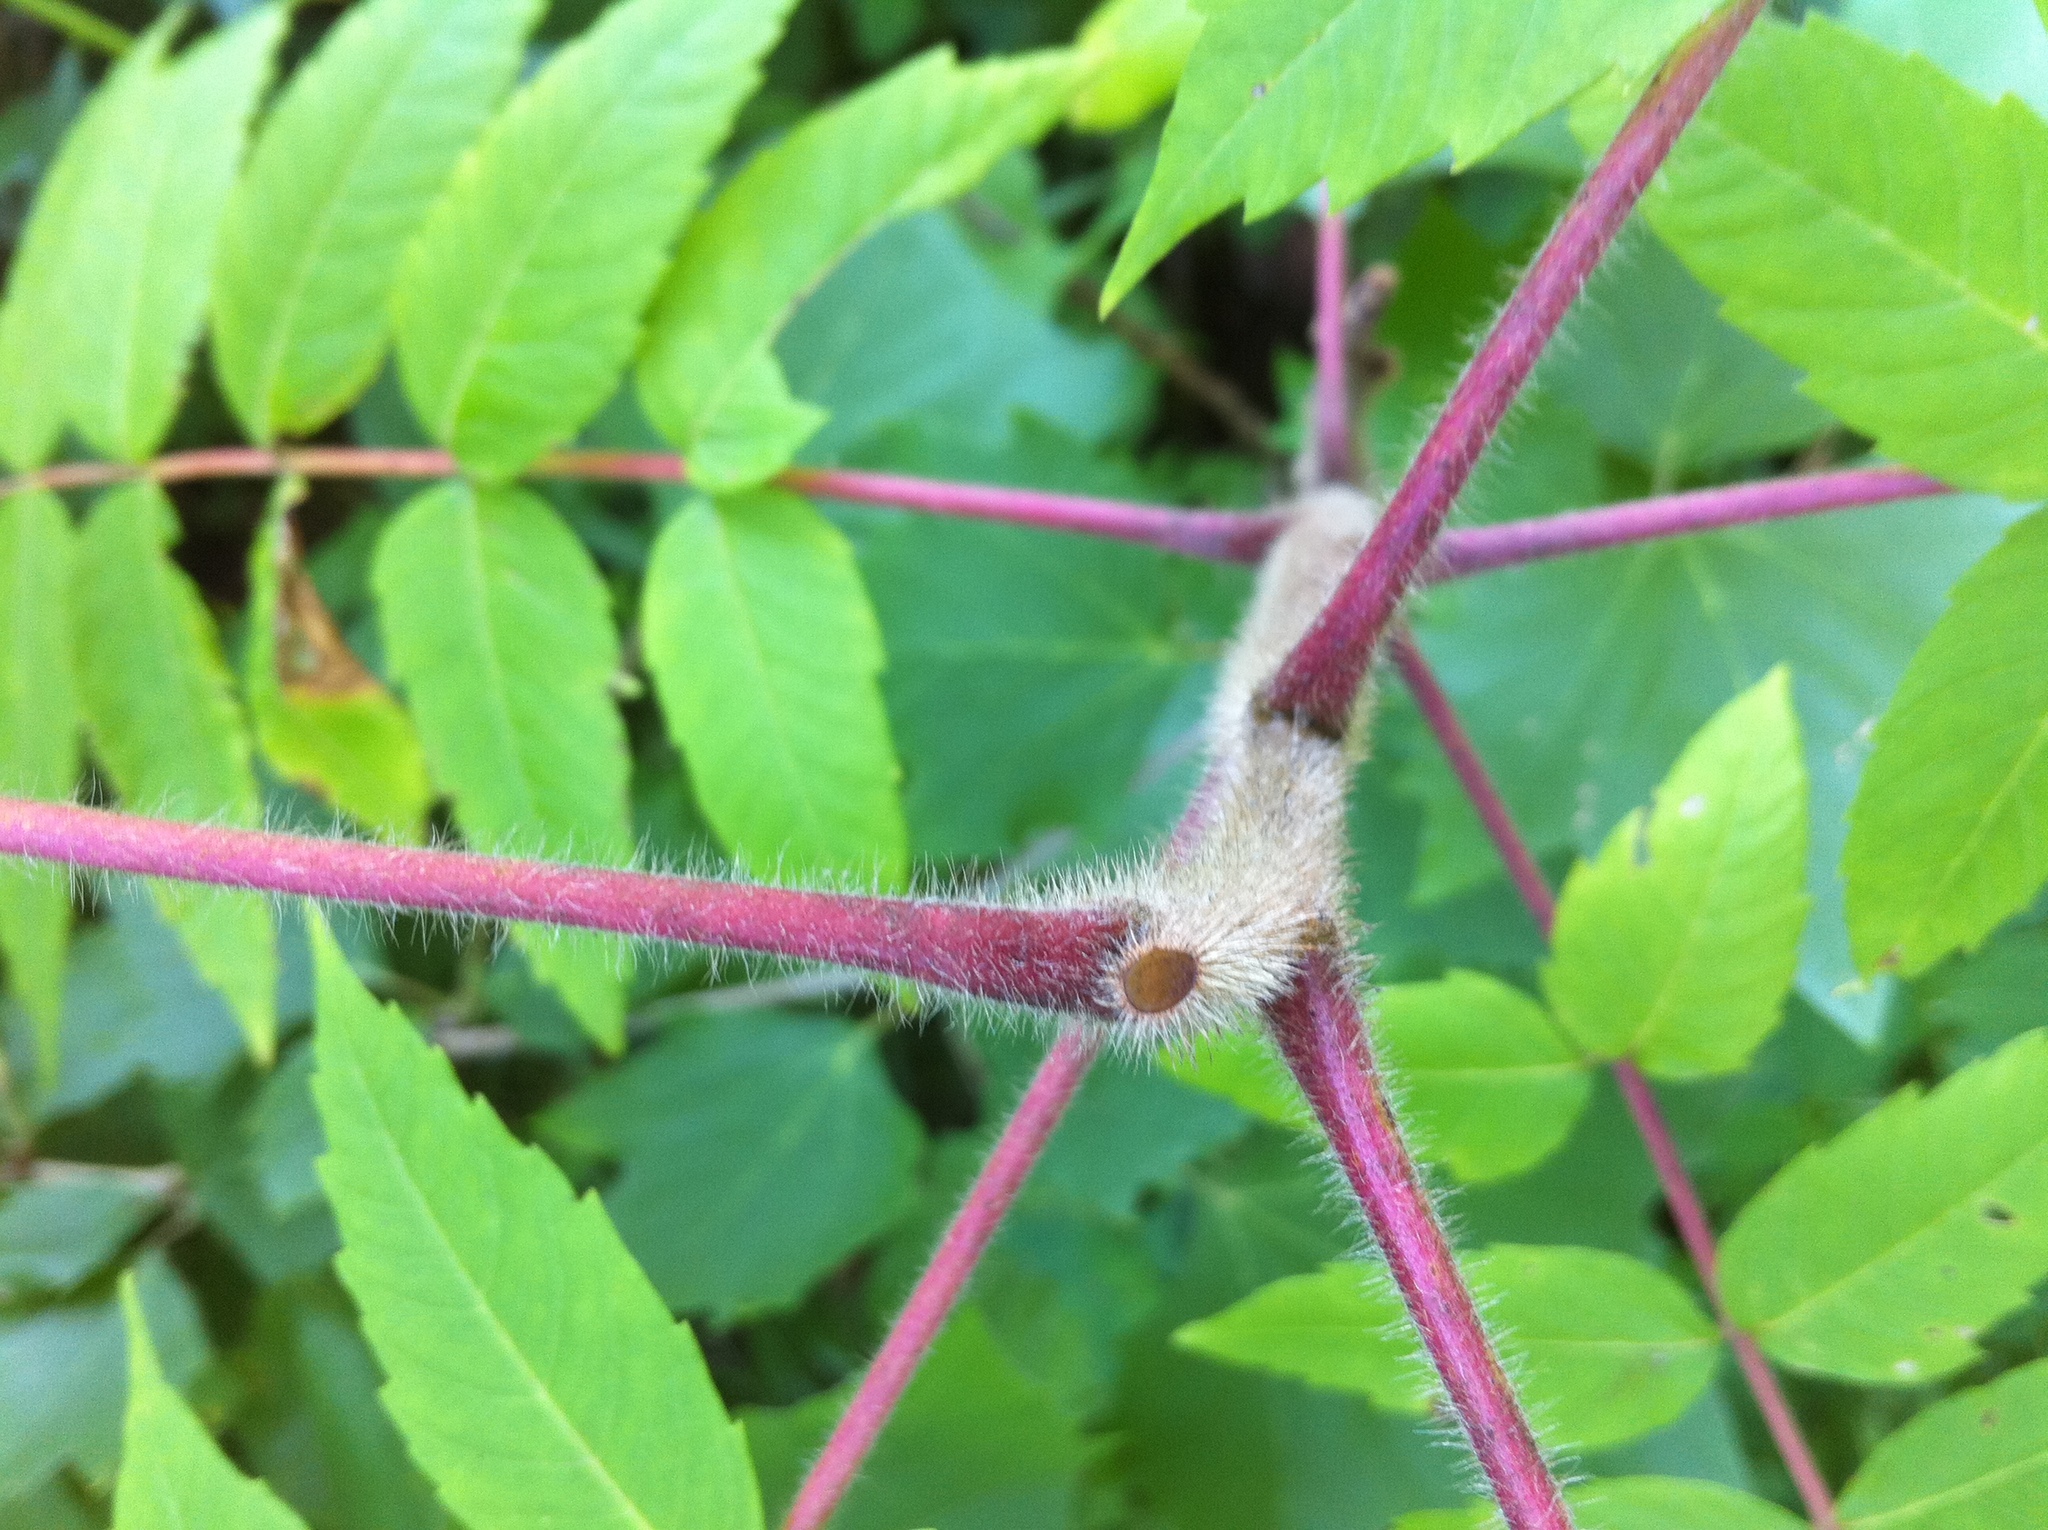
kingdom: Plantae
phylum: Tracheophyta
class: Magnoliopsida
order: Sapindales
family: Anacardiaceae
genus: Rhus
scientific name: Rhus typhina
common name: Staghorn sumac
